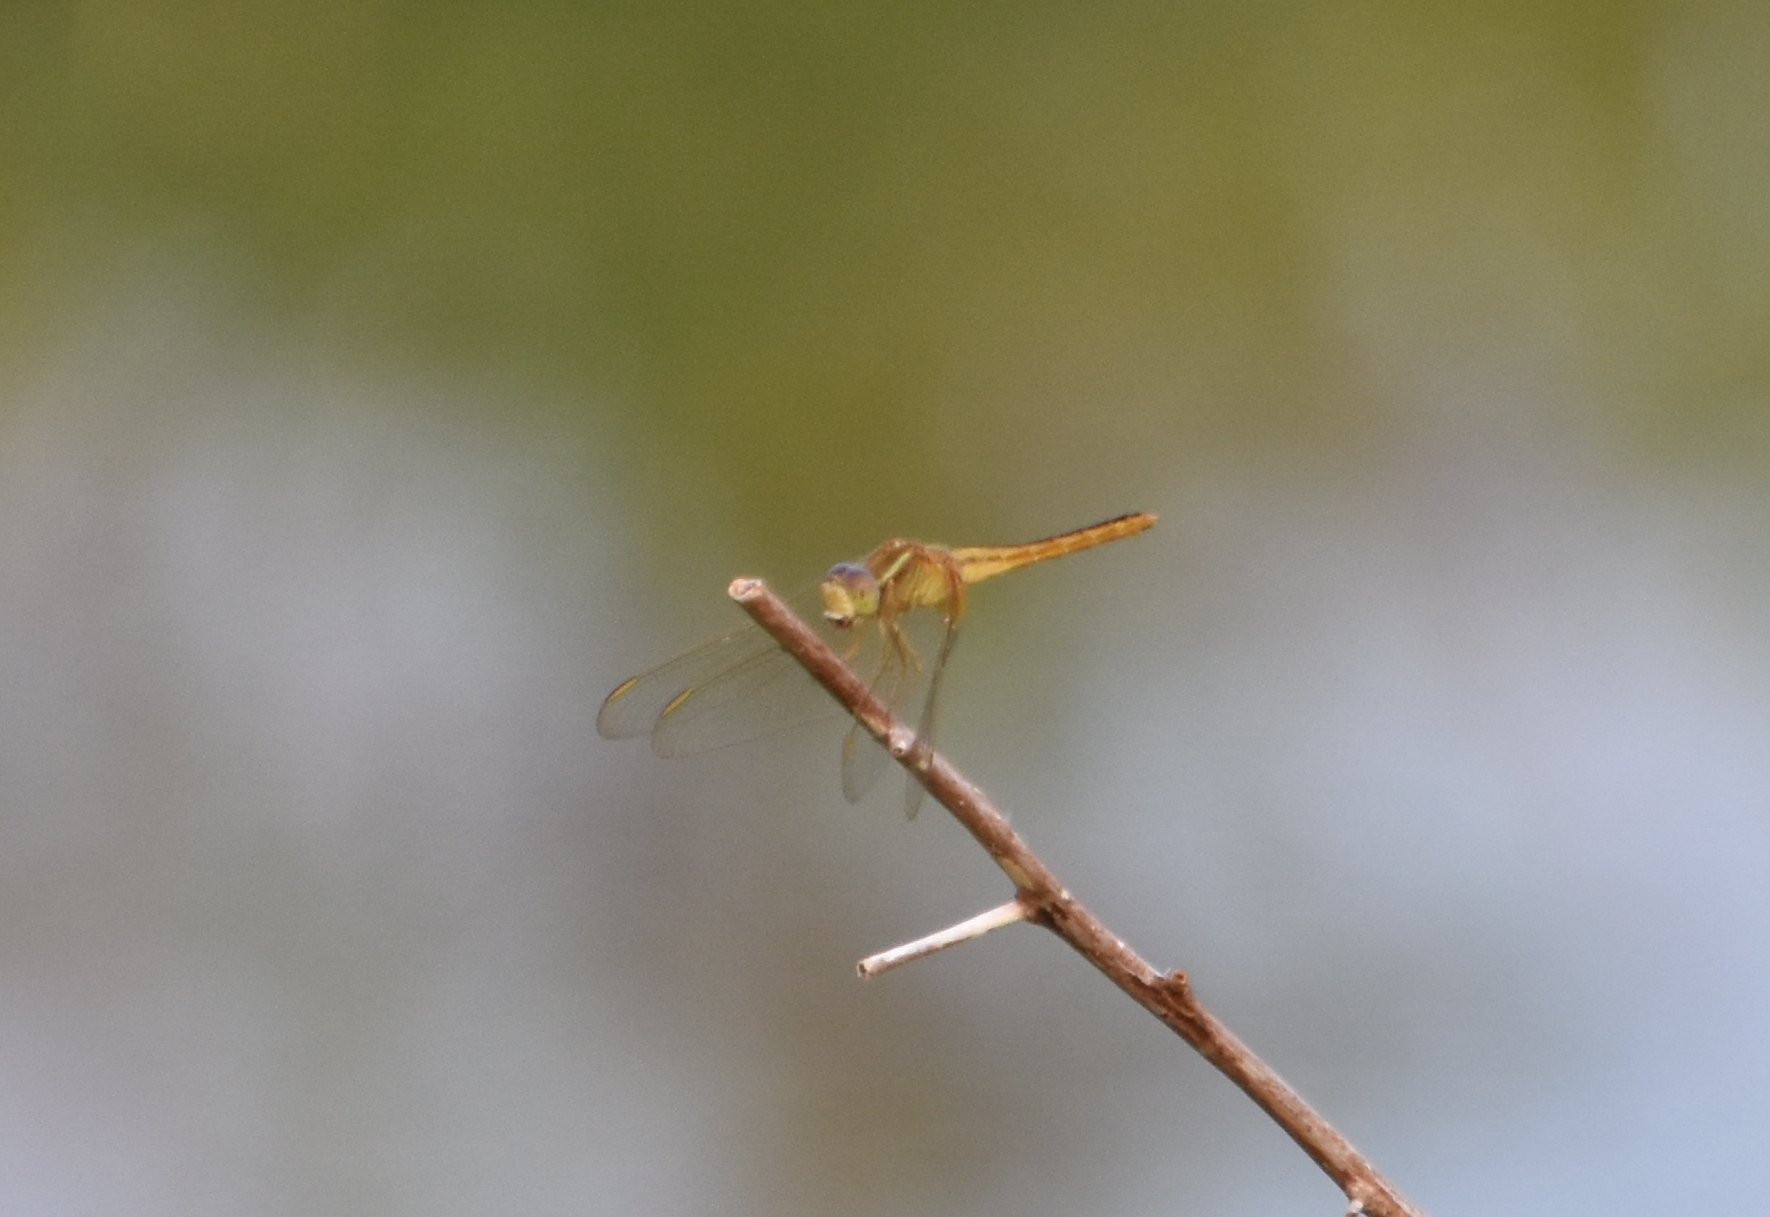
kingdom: Animalia
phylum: Arthropoda
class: Insecta
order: Odonata
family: Libellulidae
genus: Crocothemis
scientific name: Crocothemis servilia
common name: Scarlet skimmer
